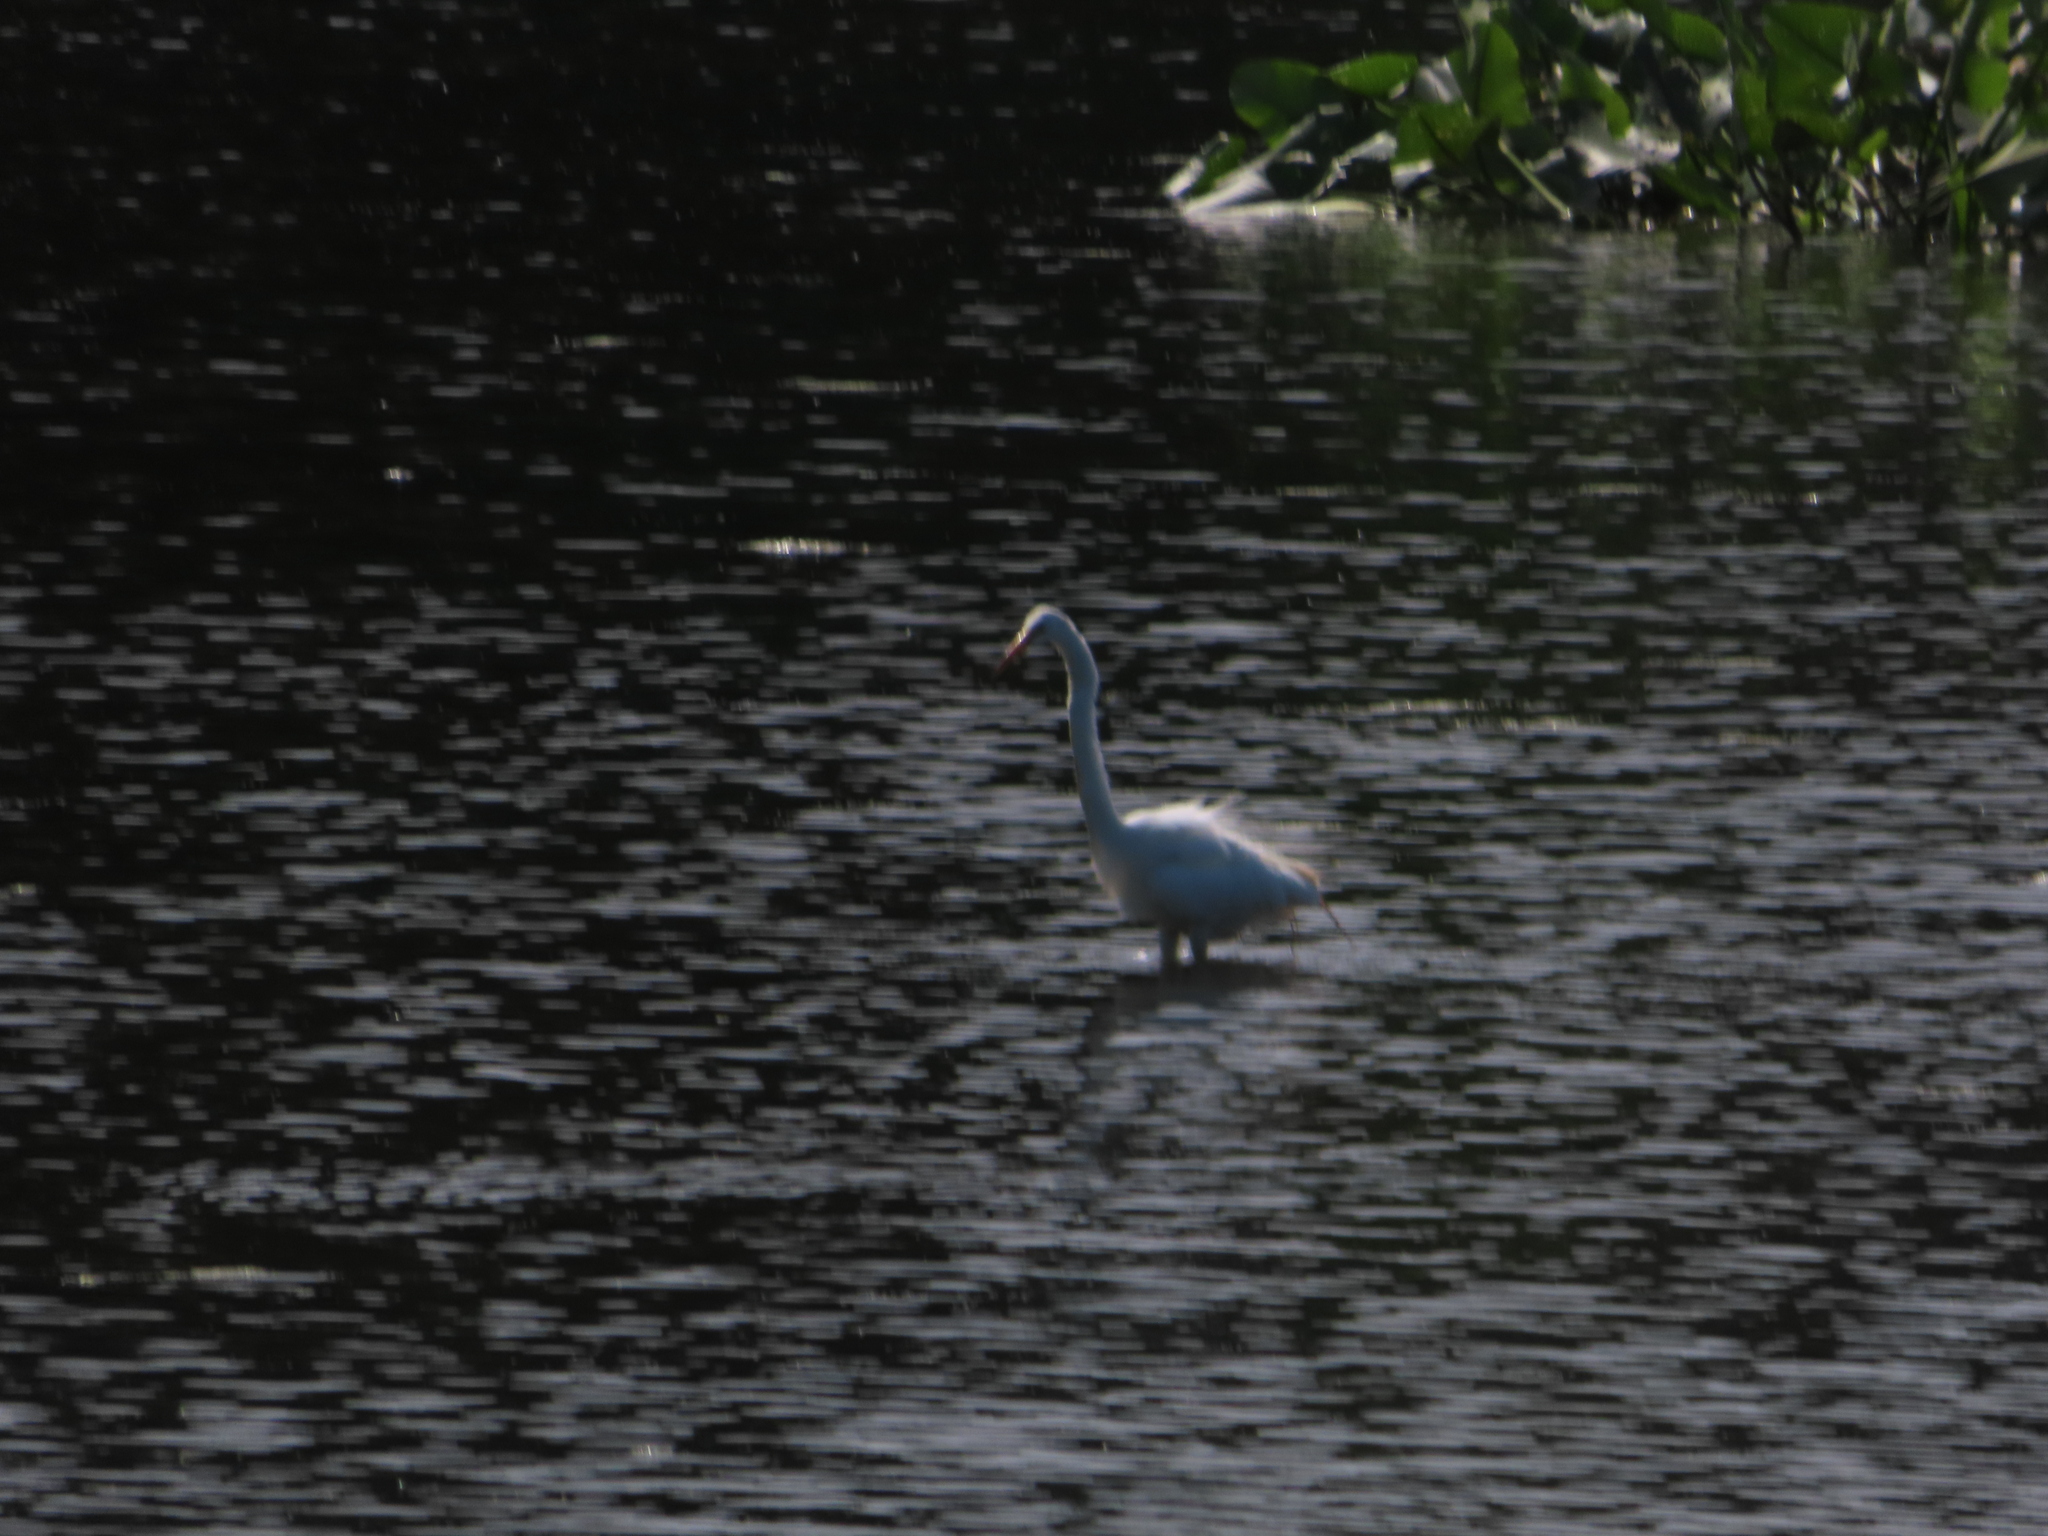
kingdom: Animalia
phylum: Chordata
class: Aves
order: Pelecaniformes
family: Ardeidae
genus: Ardea
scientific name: Ardea alba
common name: Great egret
